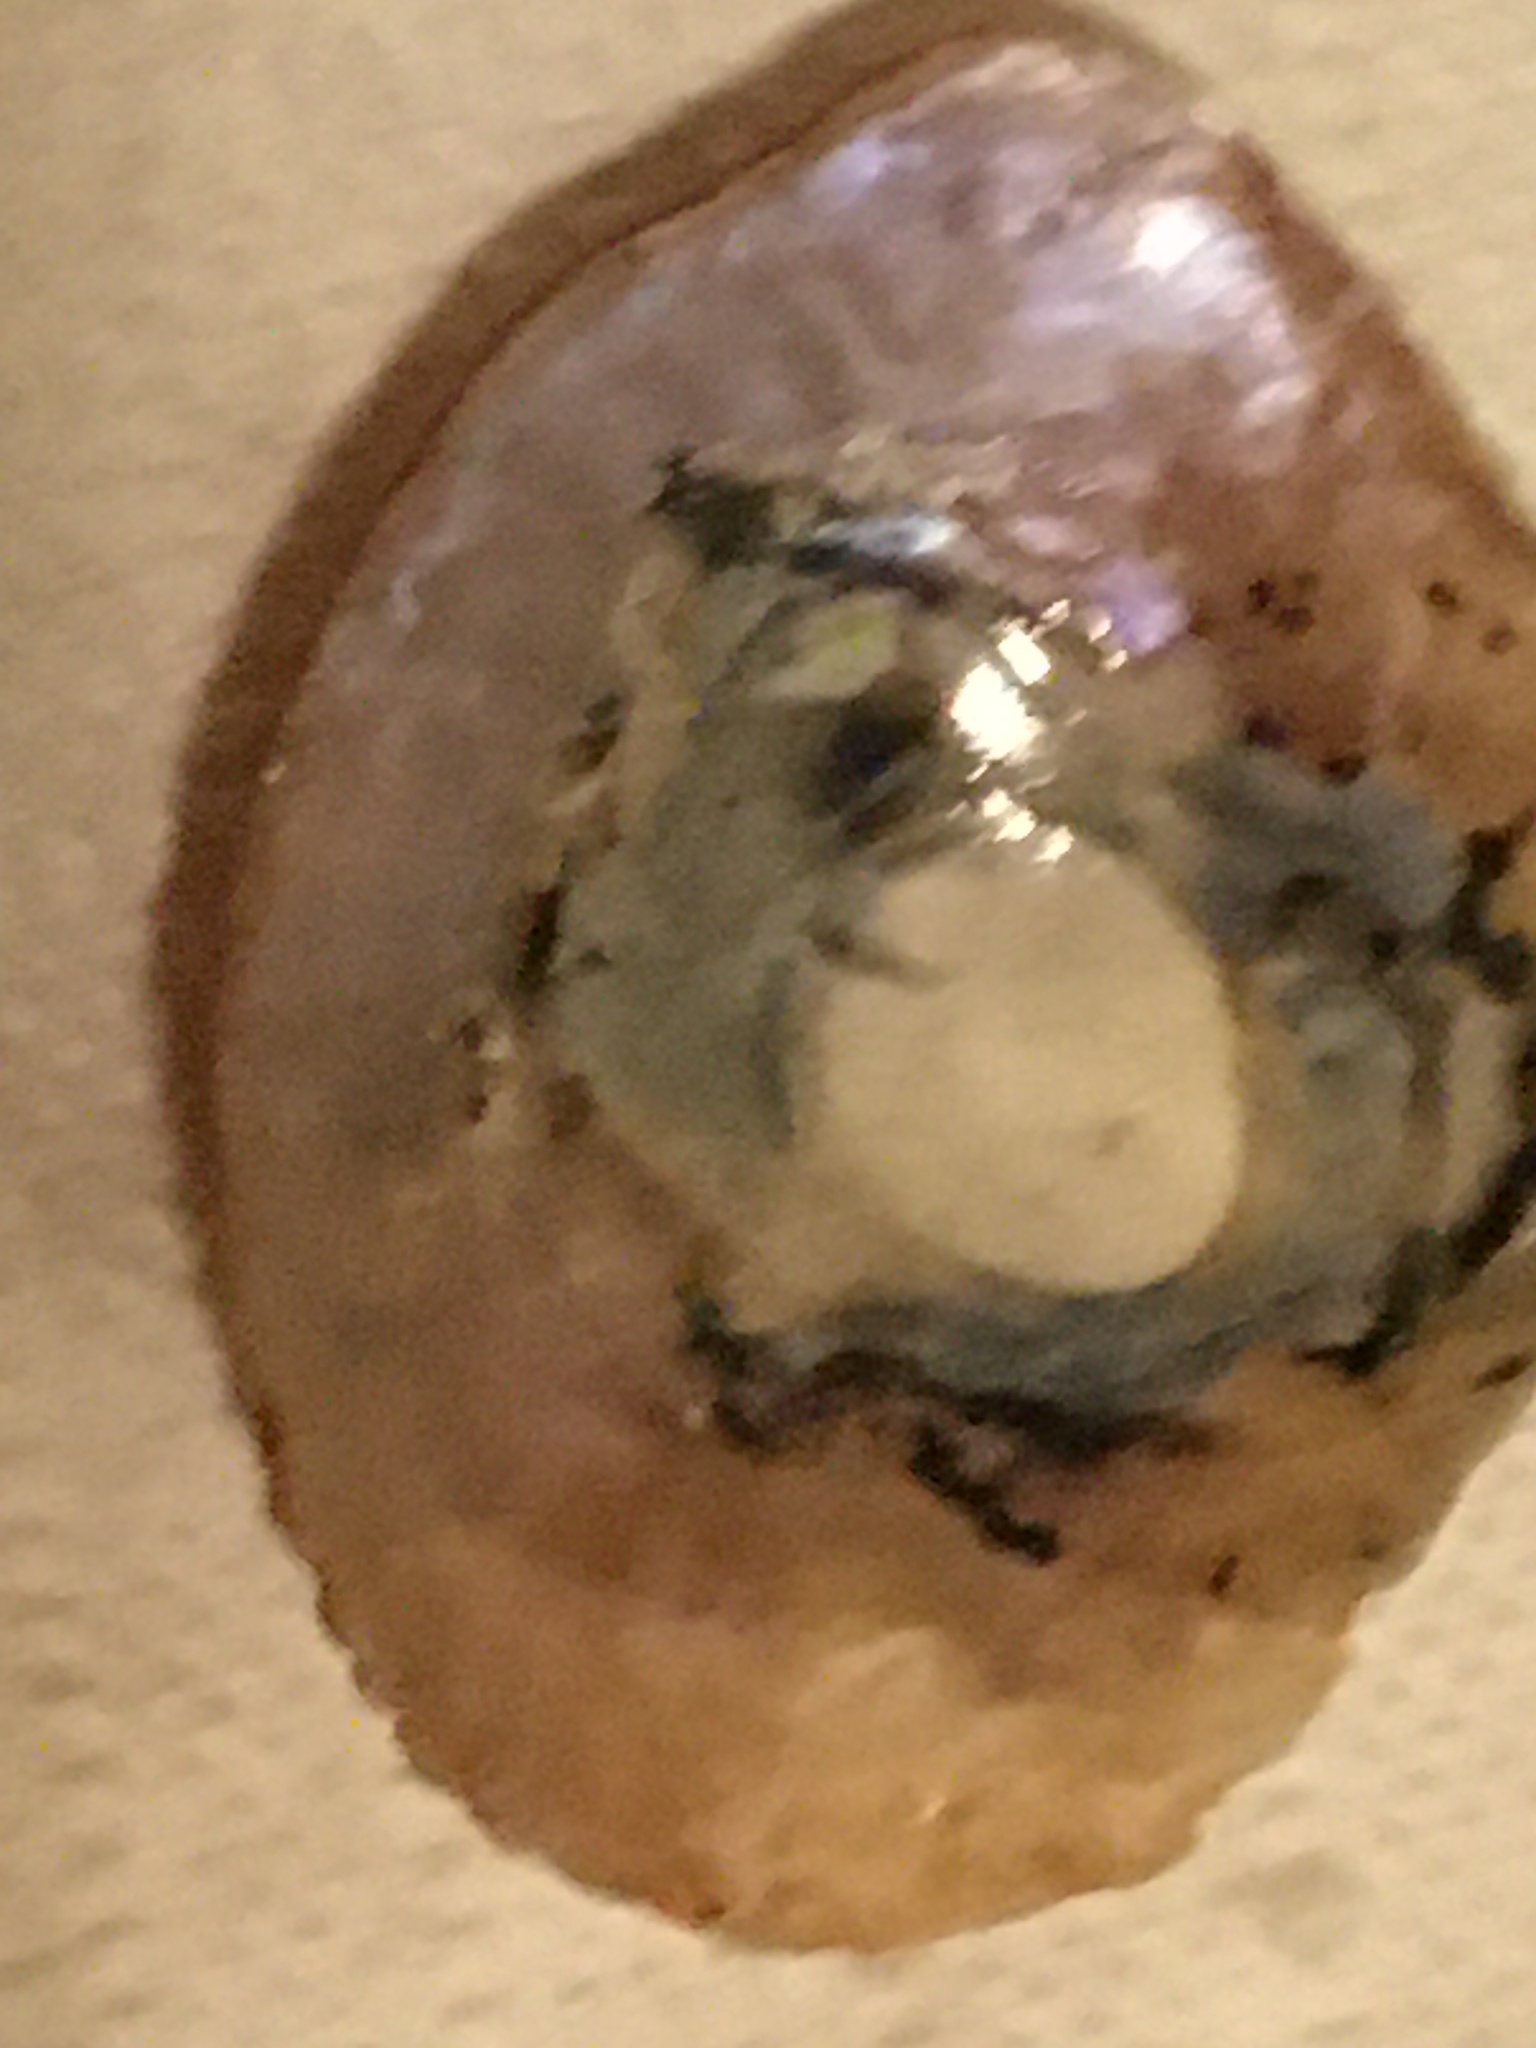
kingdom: Animalia
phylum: Mollusca
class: Bivalvia
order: Pectinida
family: Anomiidae
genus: Pododesmus
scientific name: Pododesmus macrochisma
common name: Alaska jingle
